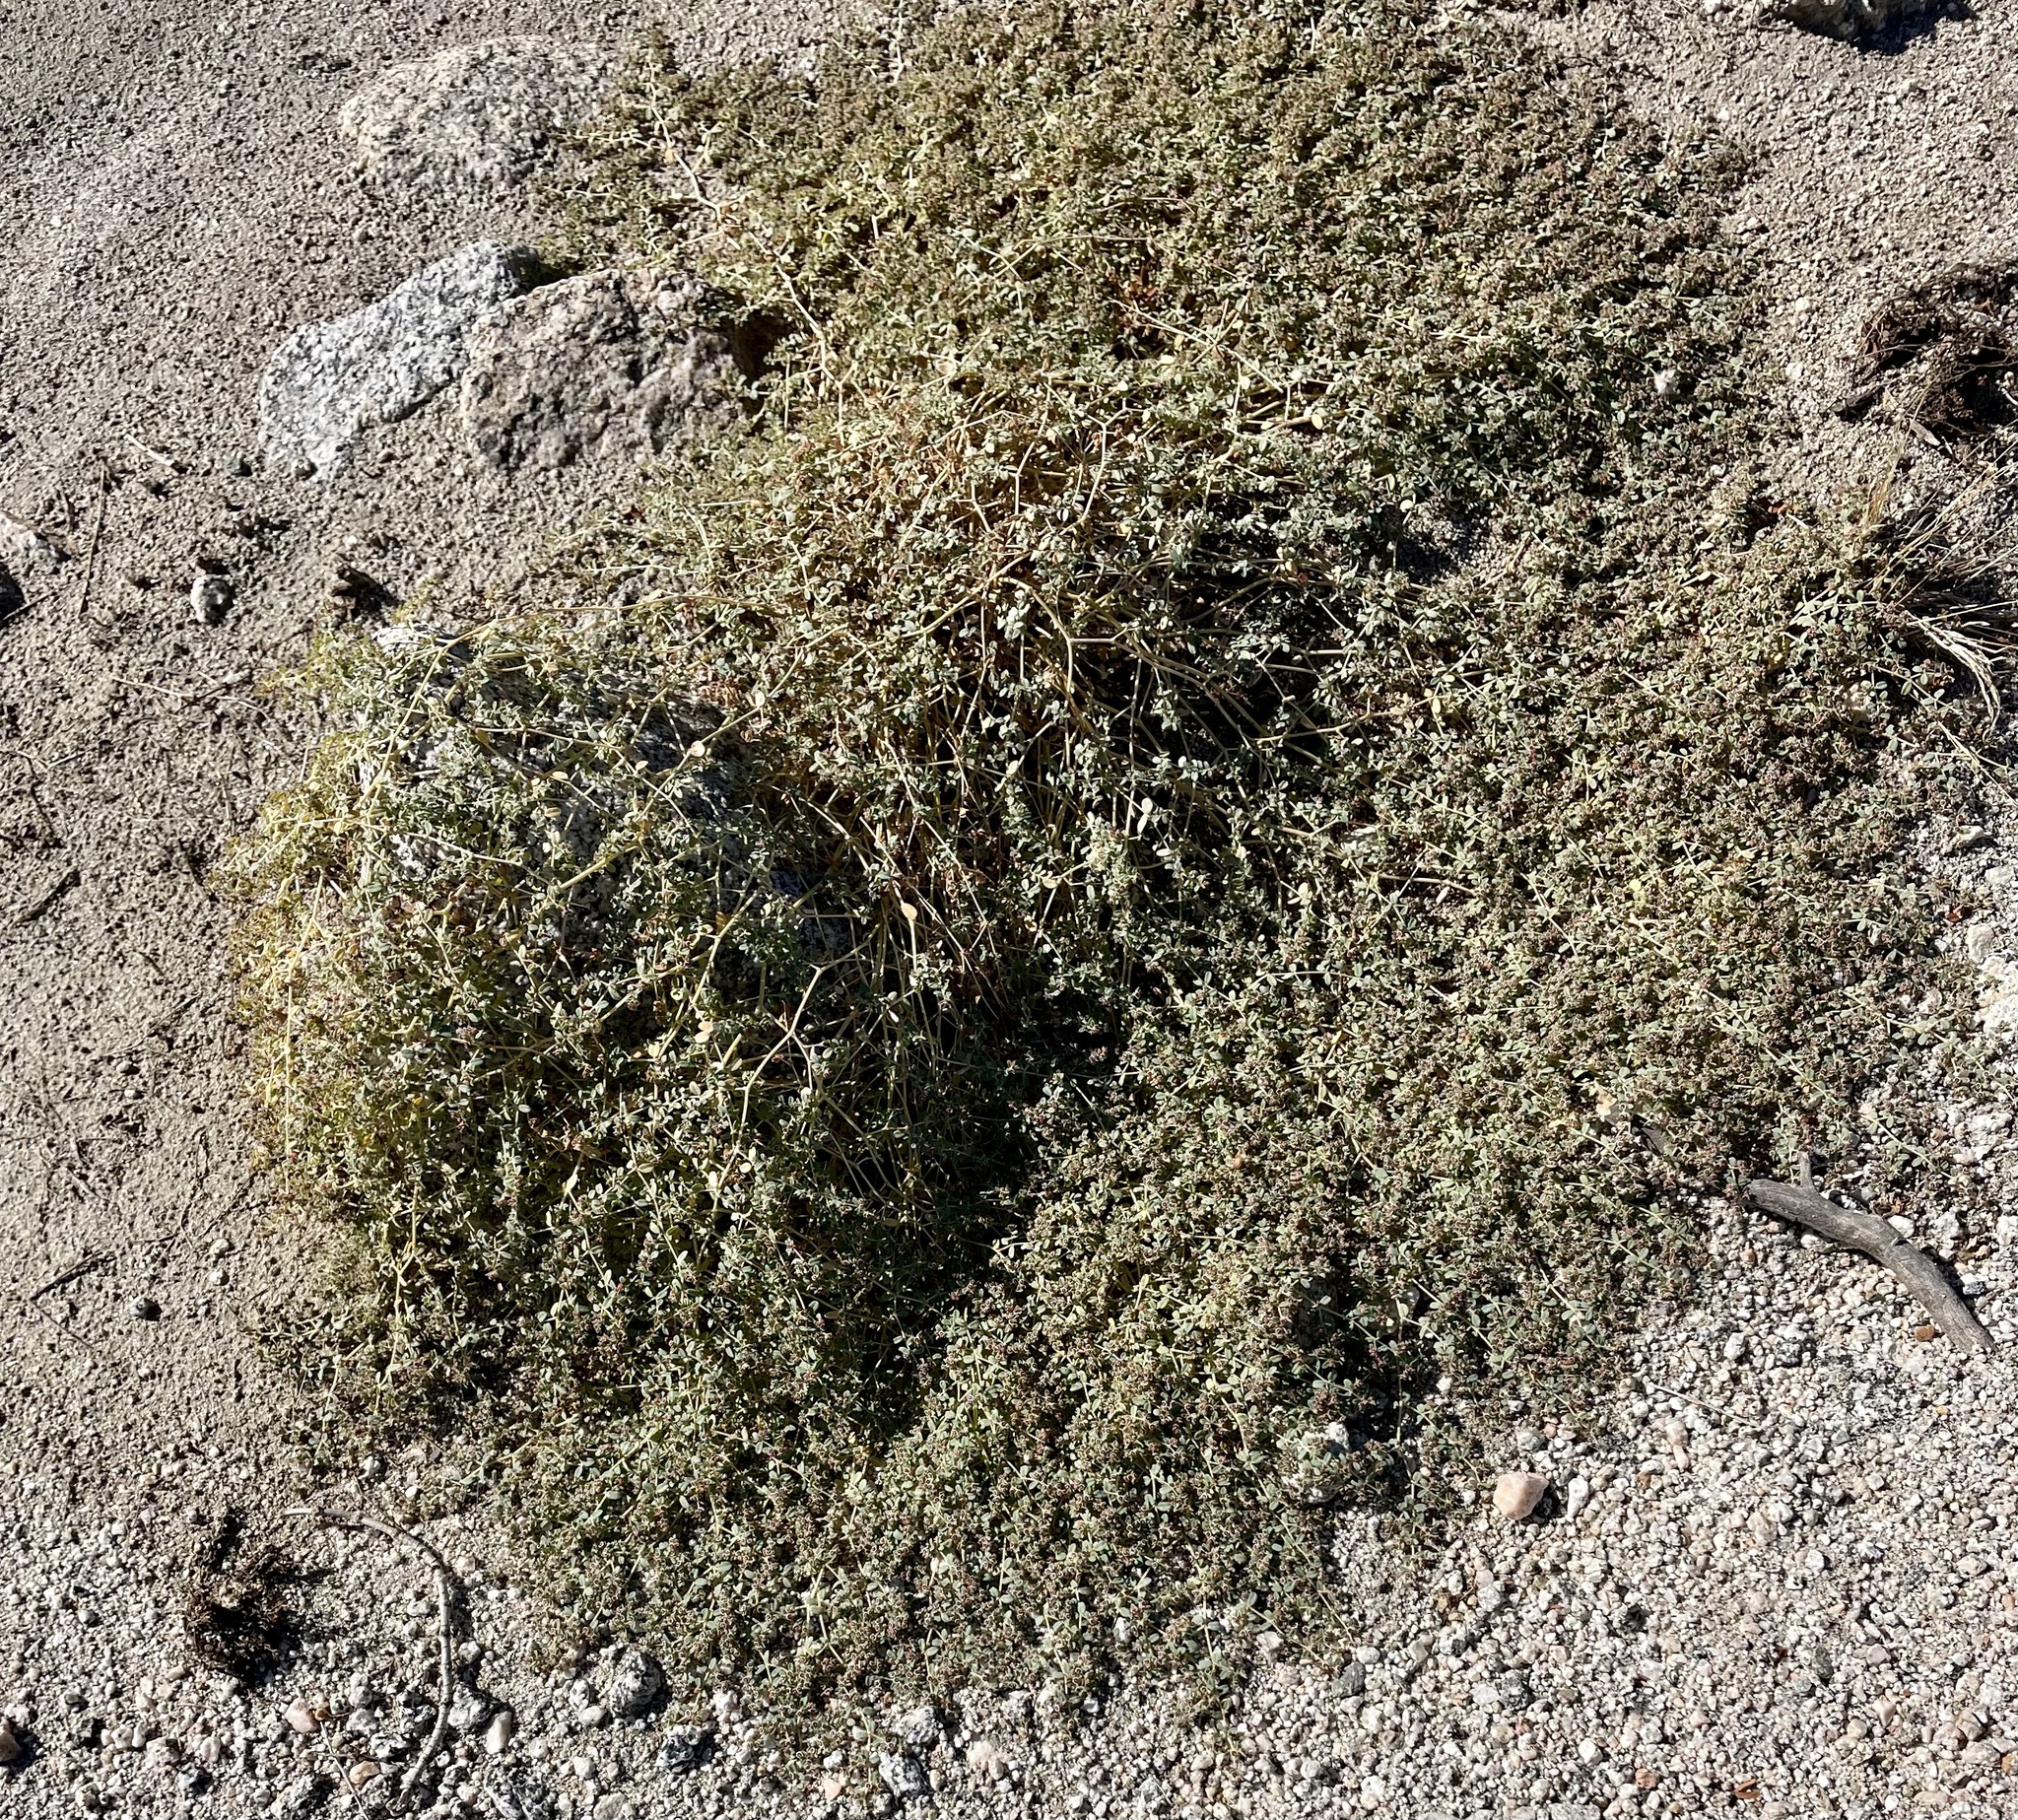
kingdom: Plantae
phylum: Tracheophyta
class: Magnoliopsida
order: Malpighiales
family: Euphorbiaceae
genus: Euphorbia
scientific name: Euphorbia polycarpa
